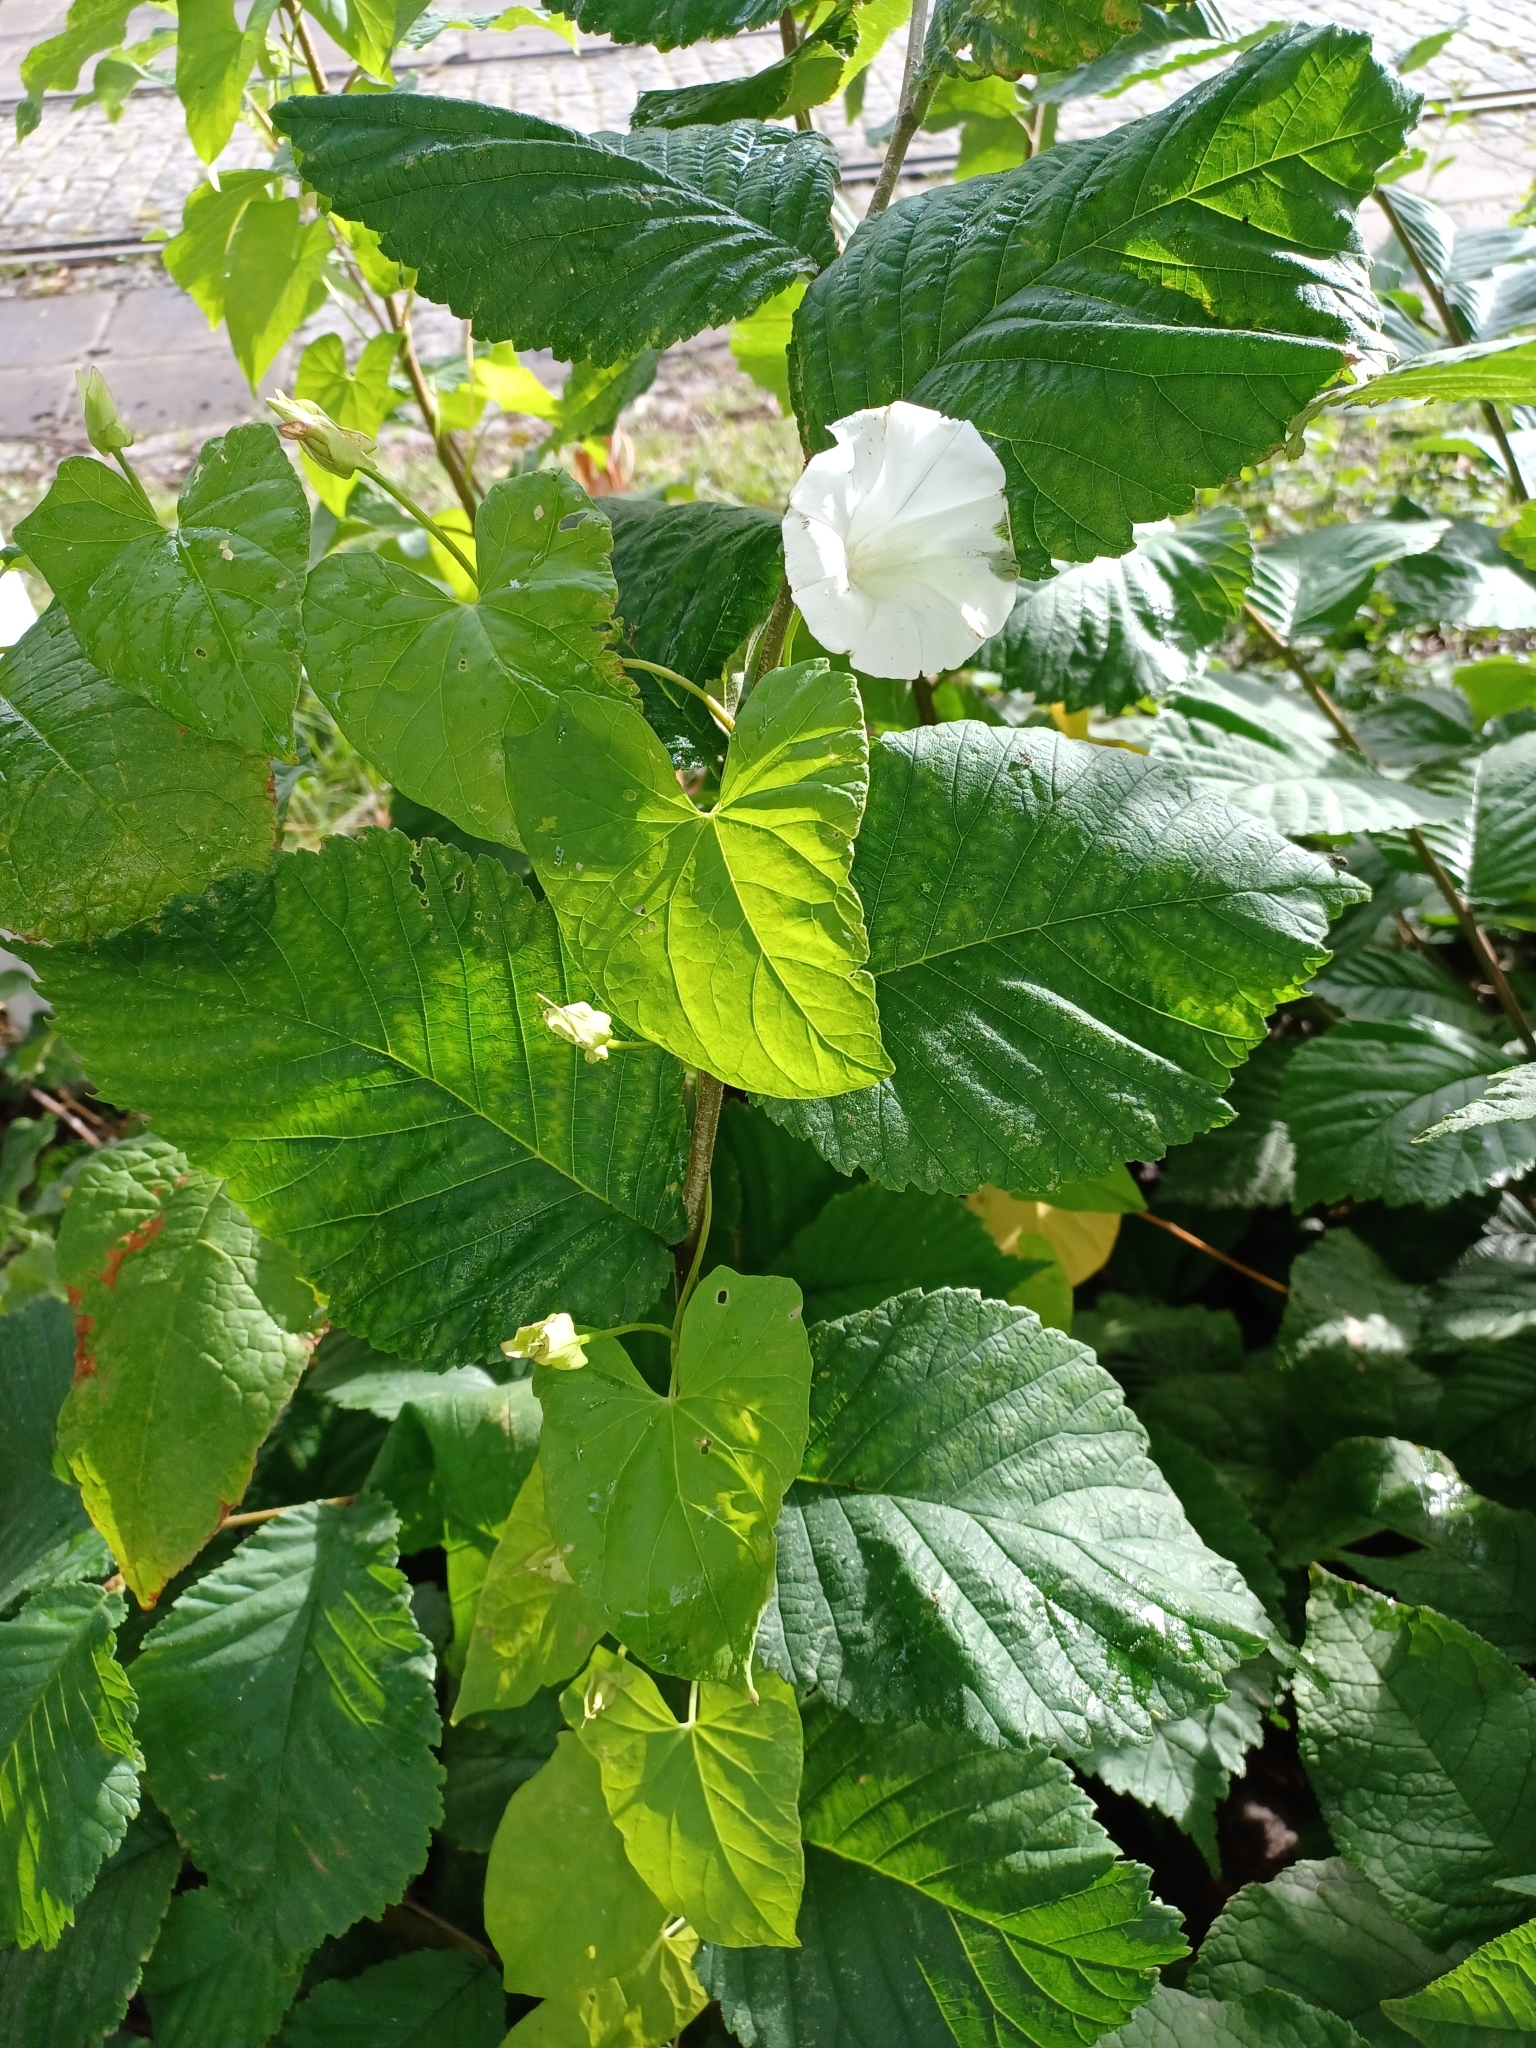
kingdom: Plantae
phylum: Tracheophyta
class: Magnoliopsida
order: Solanales
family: Convolvulaceae
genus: Calystegia
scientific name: Calystegia sepium
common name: Hedge bindweed
